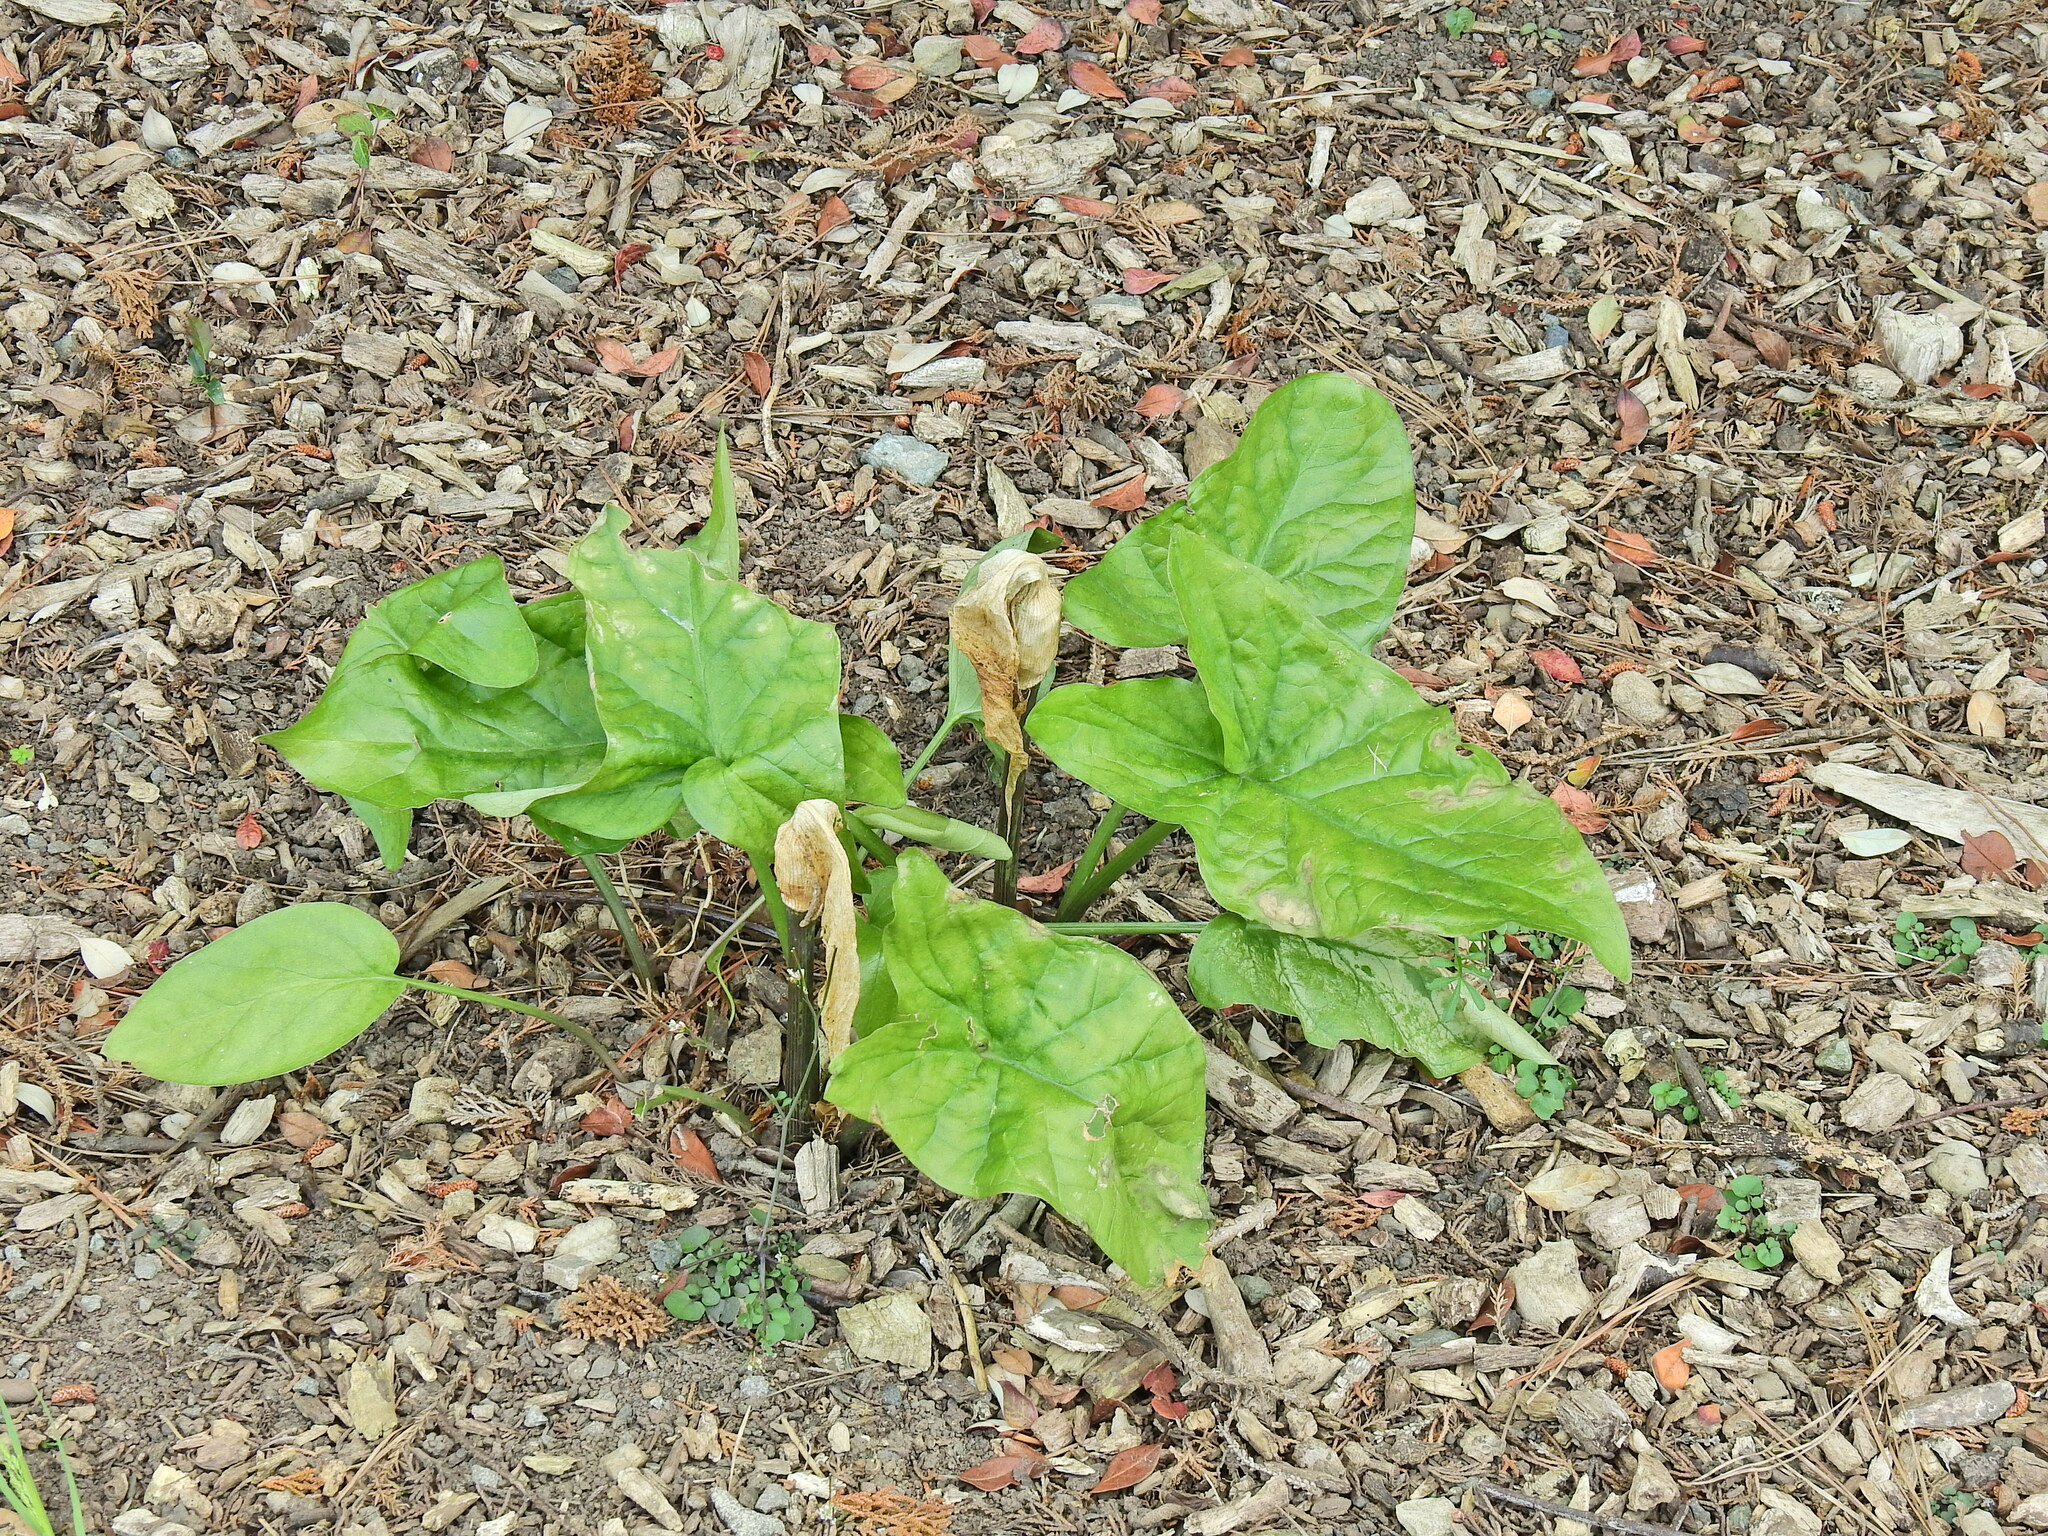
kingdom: Plantae
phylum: Tracheophyta
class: Liliopsida
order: Alismatales
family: Araceae
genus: Arum
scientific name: Arum maculatum
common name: Lords-and-ladies
